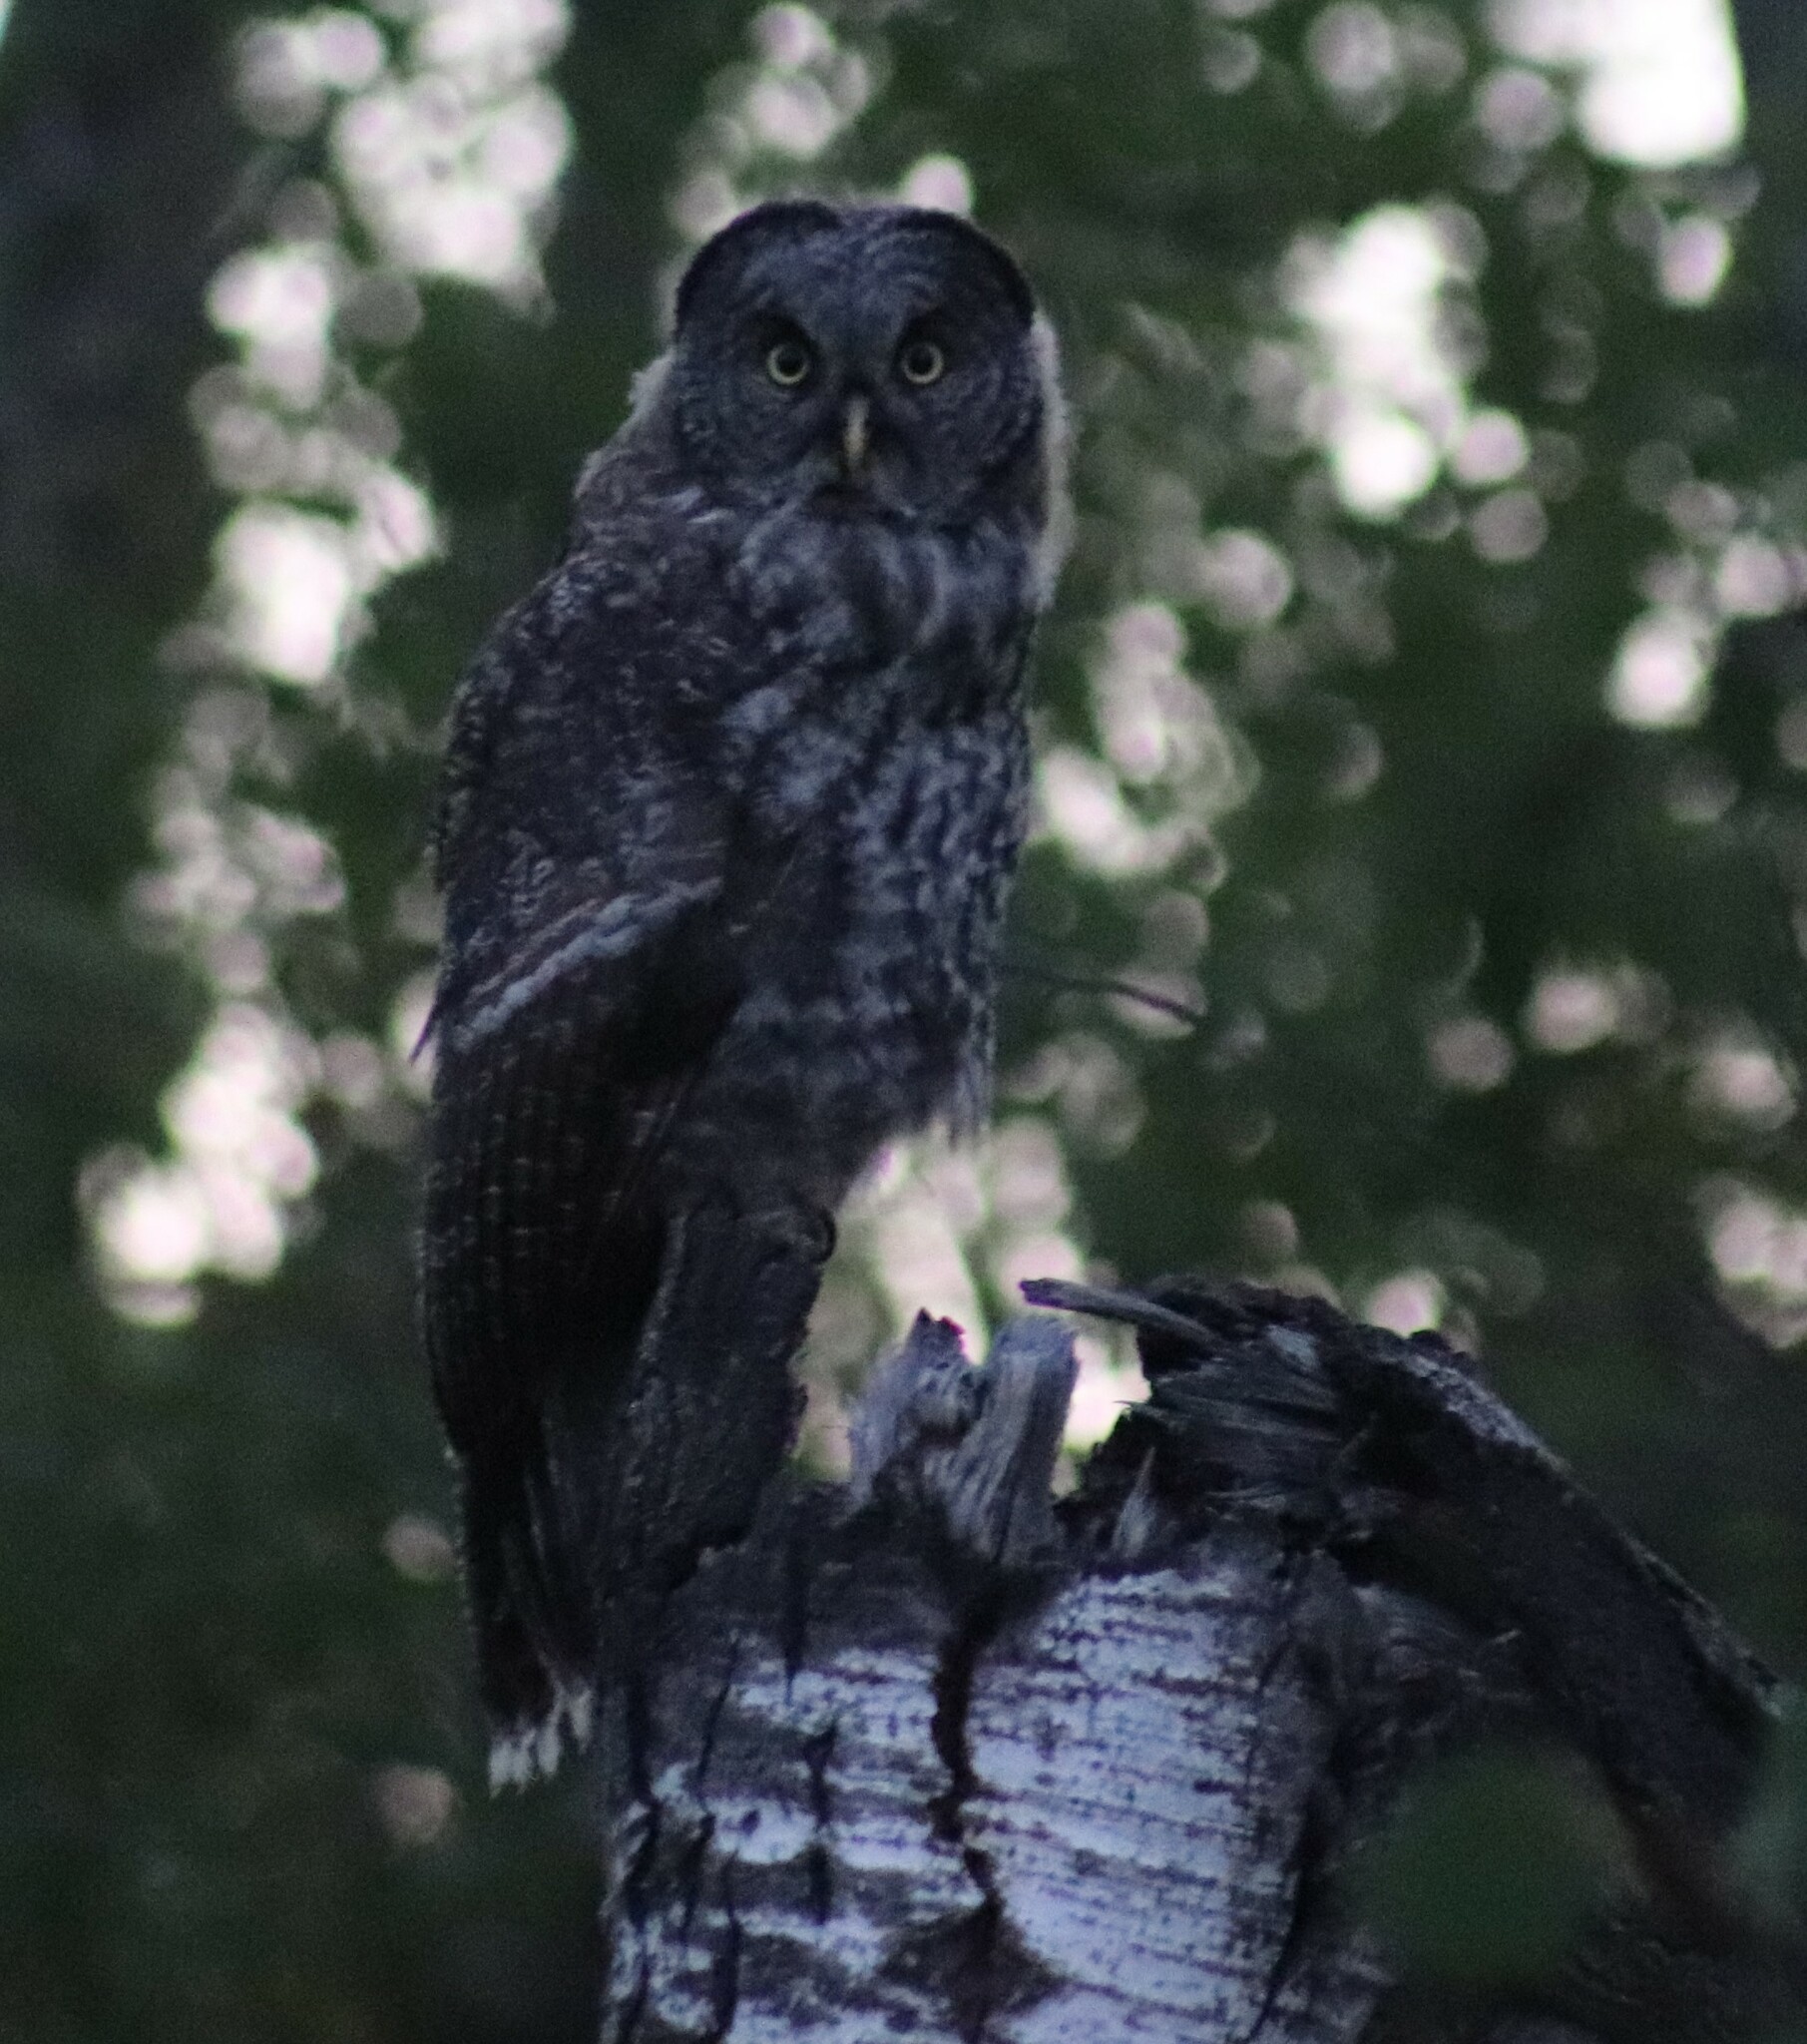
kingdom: Animalia
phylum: Chordata
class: Aves
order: Strigiformes
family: Strigidae
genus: Strix
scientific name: Strix nebulosa
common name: Great grey owl
